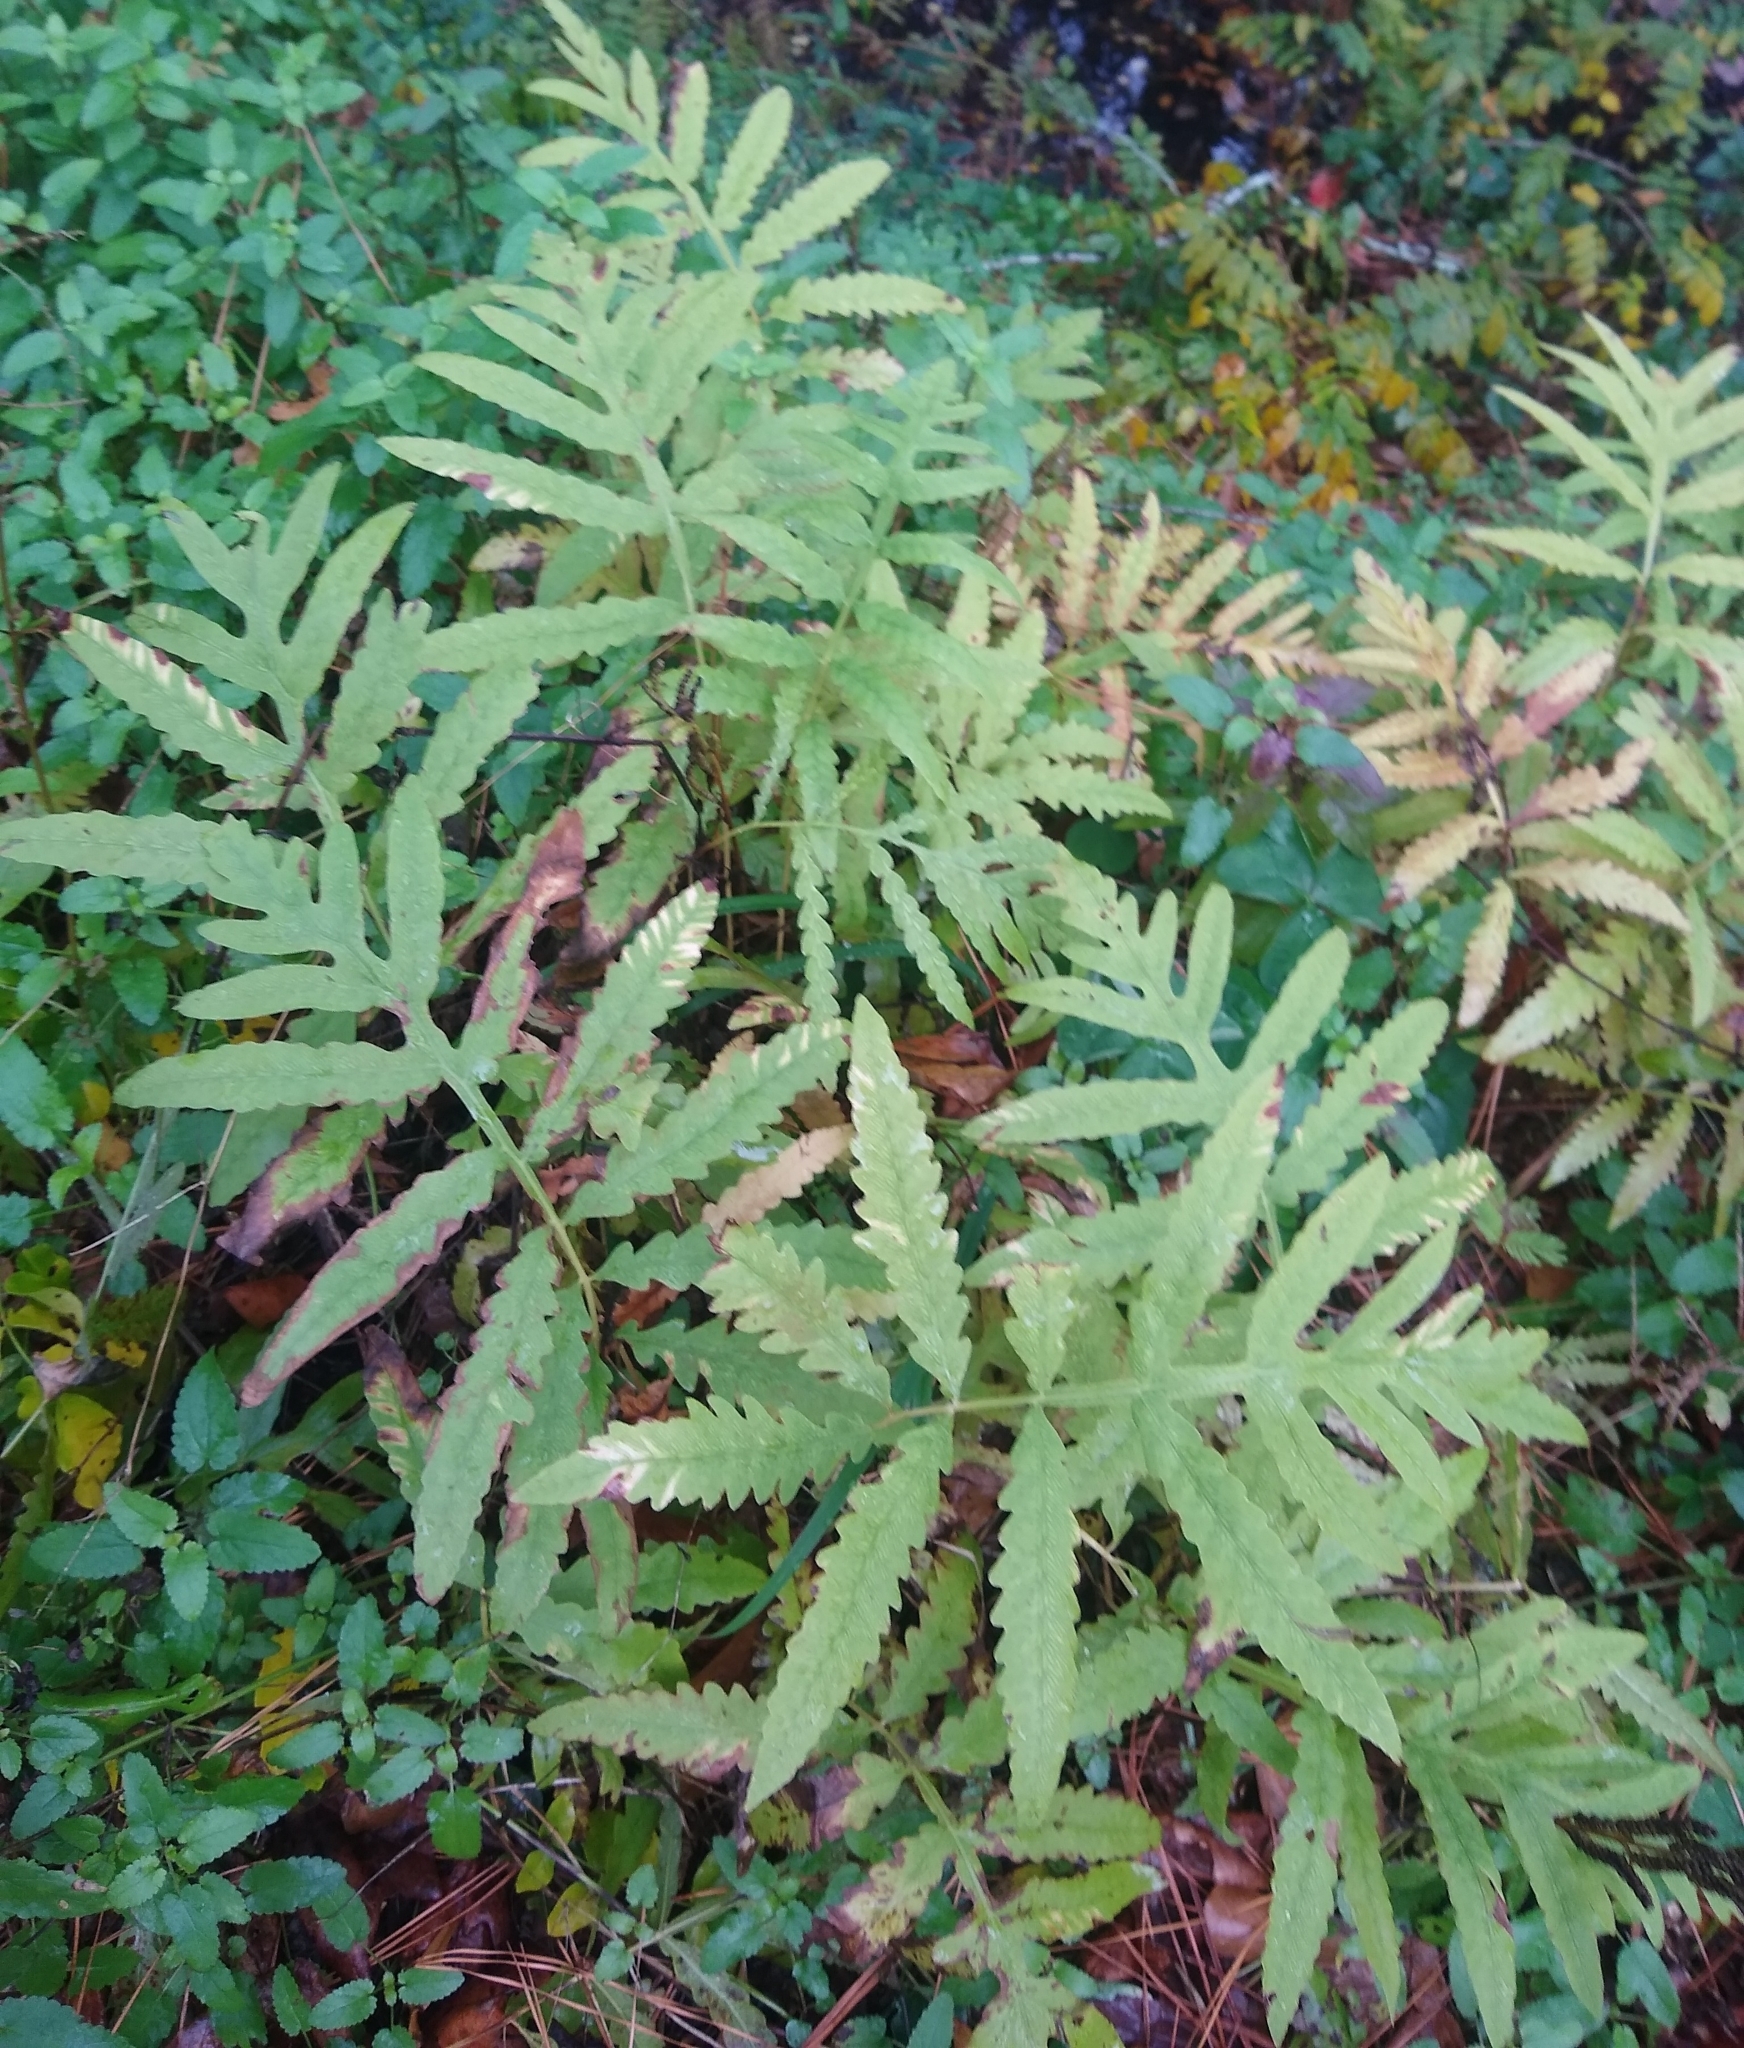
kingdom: Plantae
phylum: Tracheophyta
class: Polypodiopsida
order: Polypodiales
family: Onocleaceae
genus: Onoclea
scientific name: Onoclea sensibilis
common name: Sensitive fern
